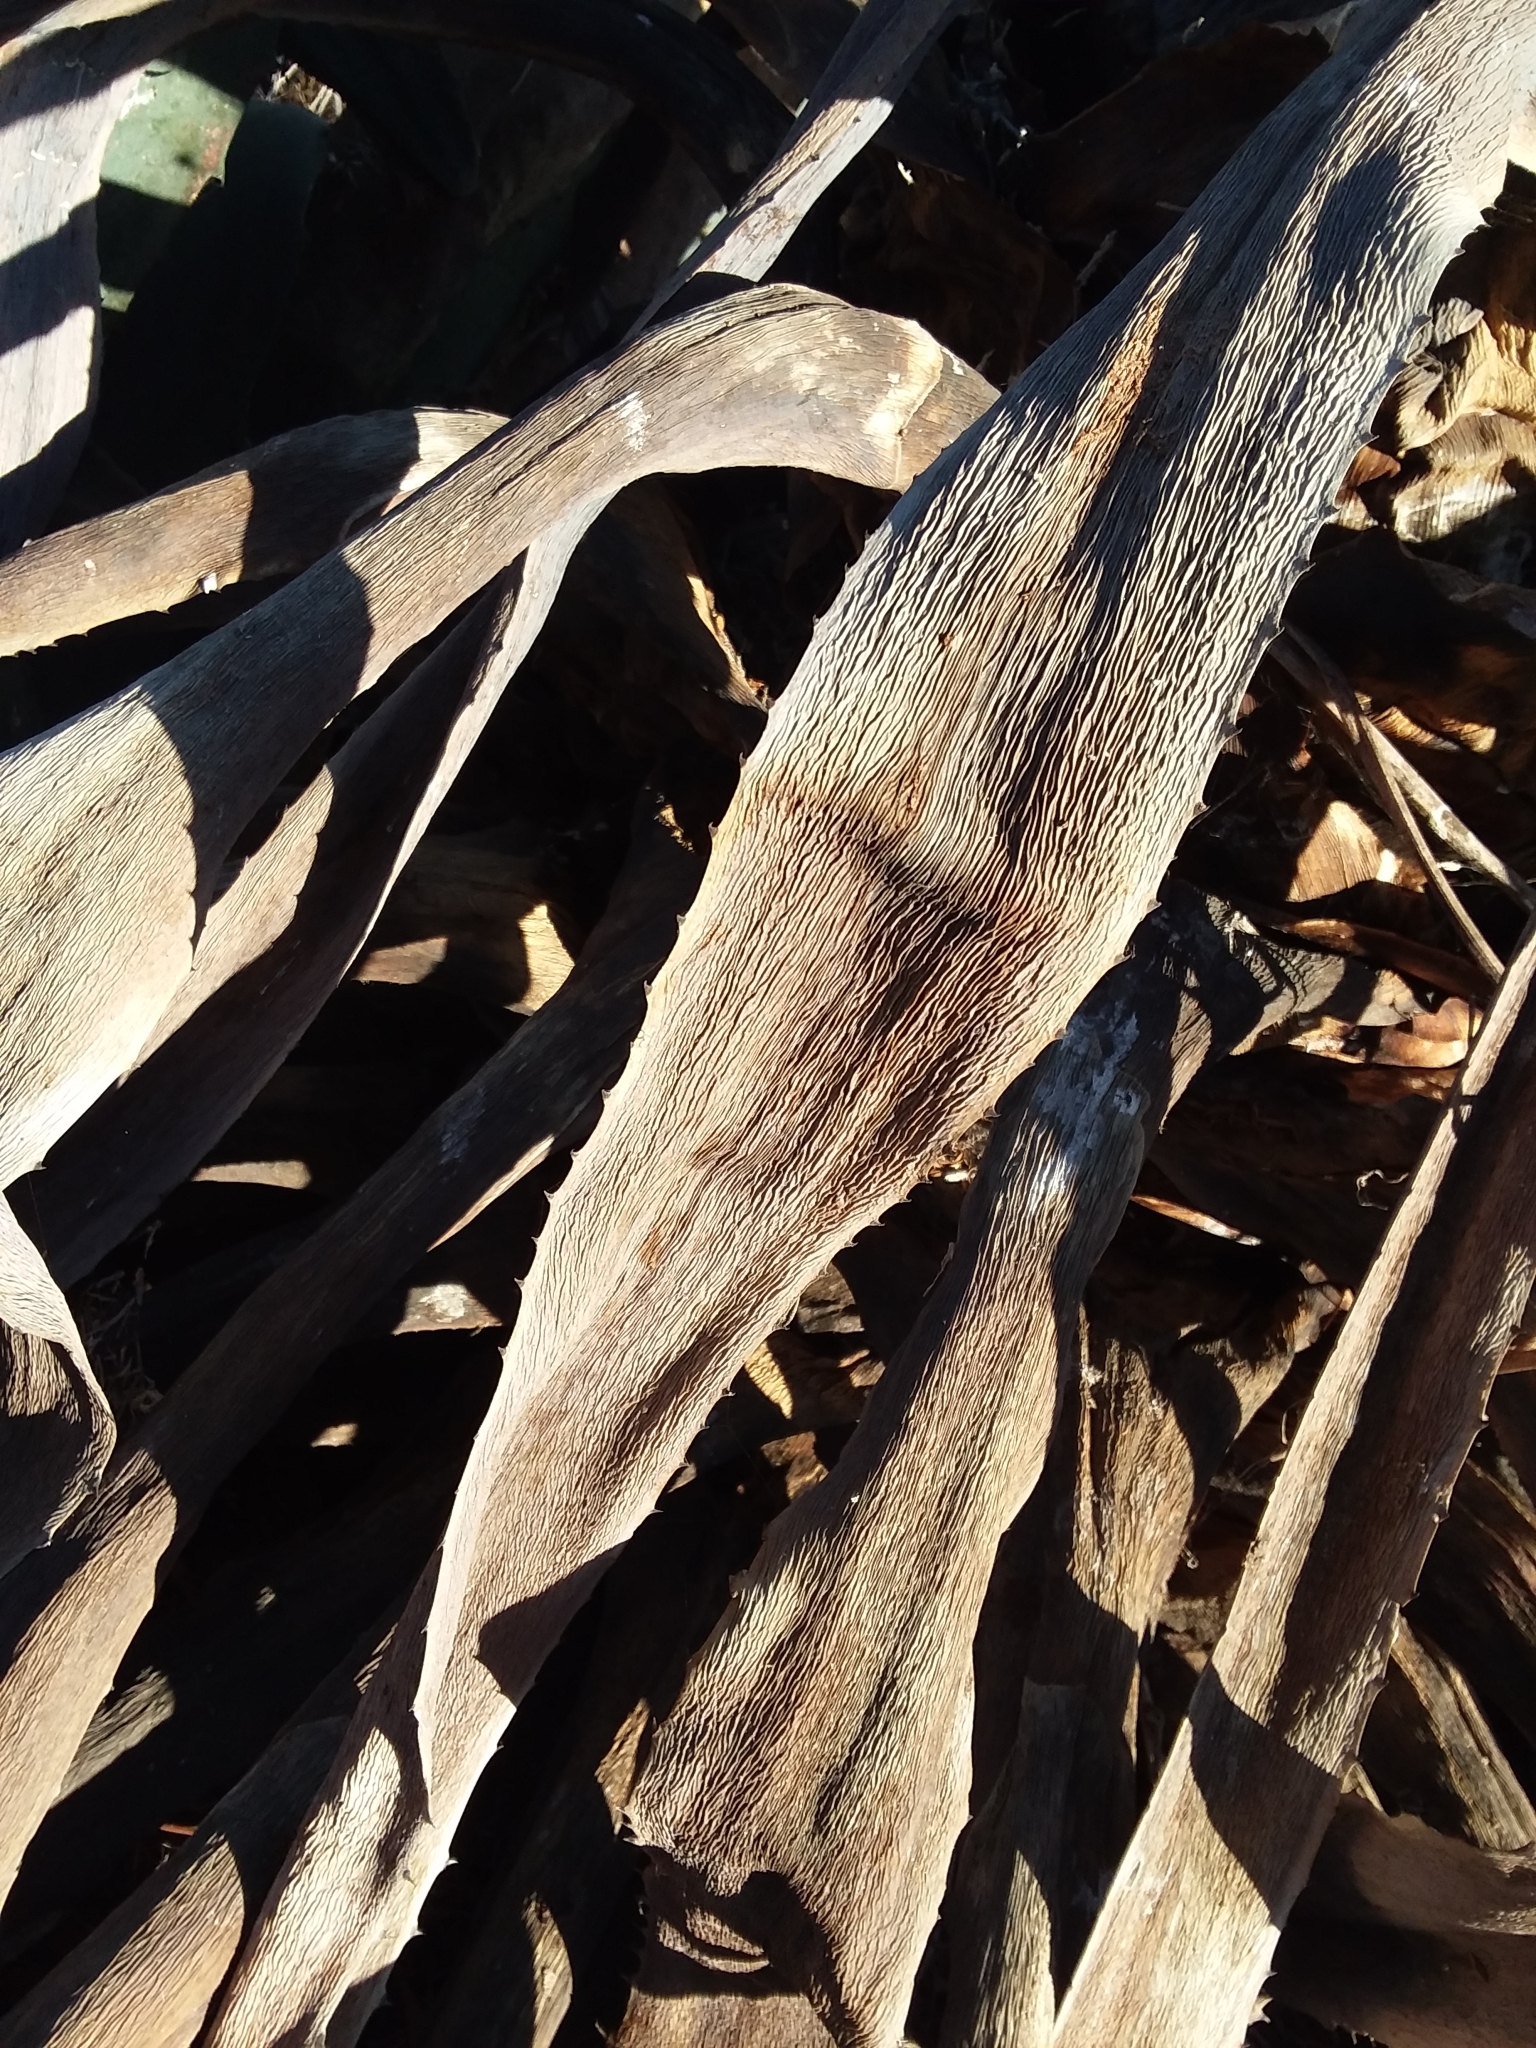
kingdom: Plantae
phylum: Tracheophyta
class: Liliopsida
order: Asparagales
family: Asparagaceae
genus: Agave
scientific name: Agave americana
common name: Centuryplant
